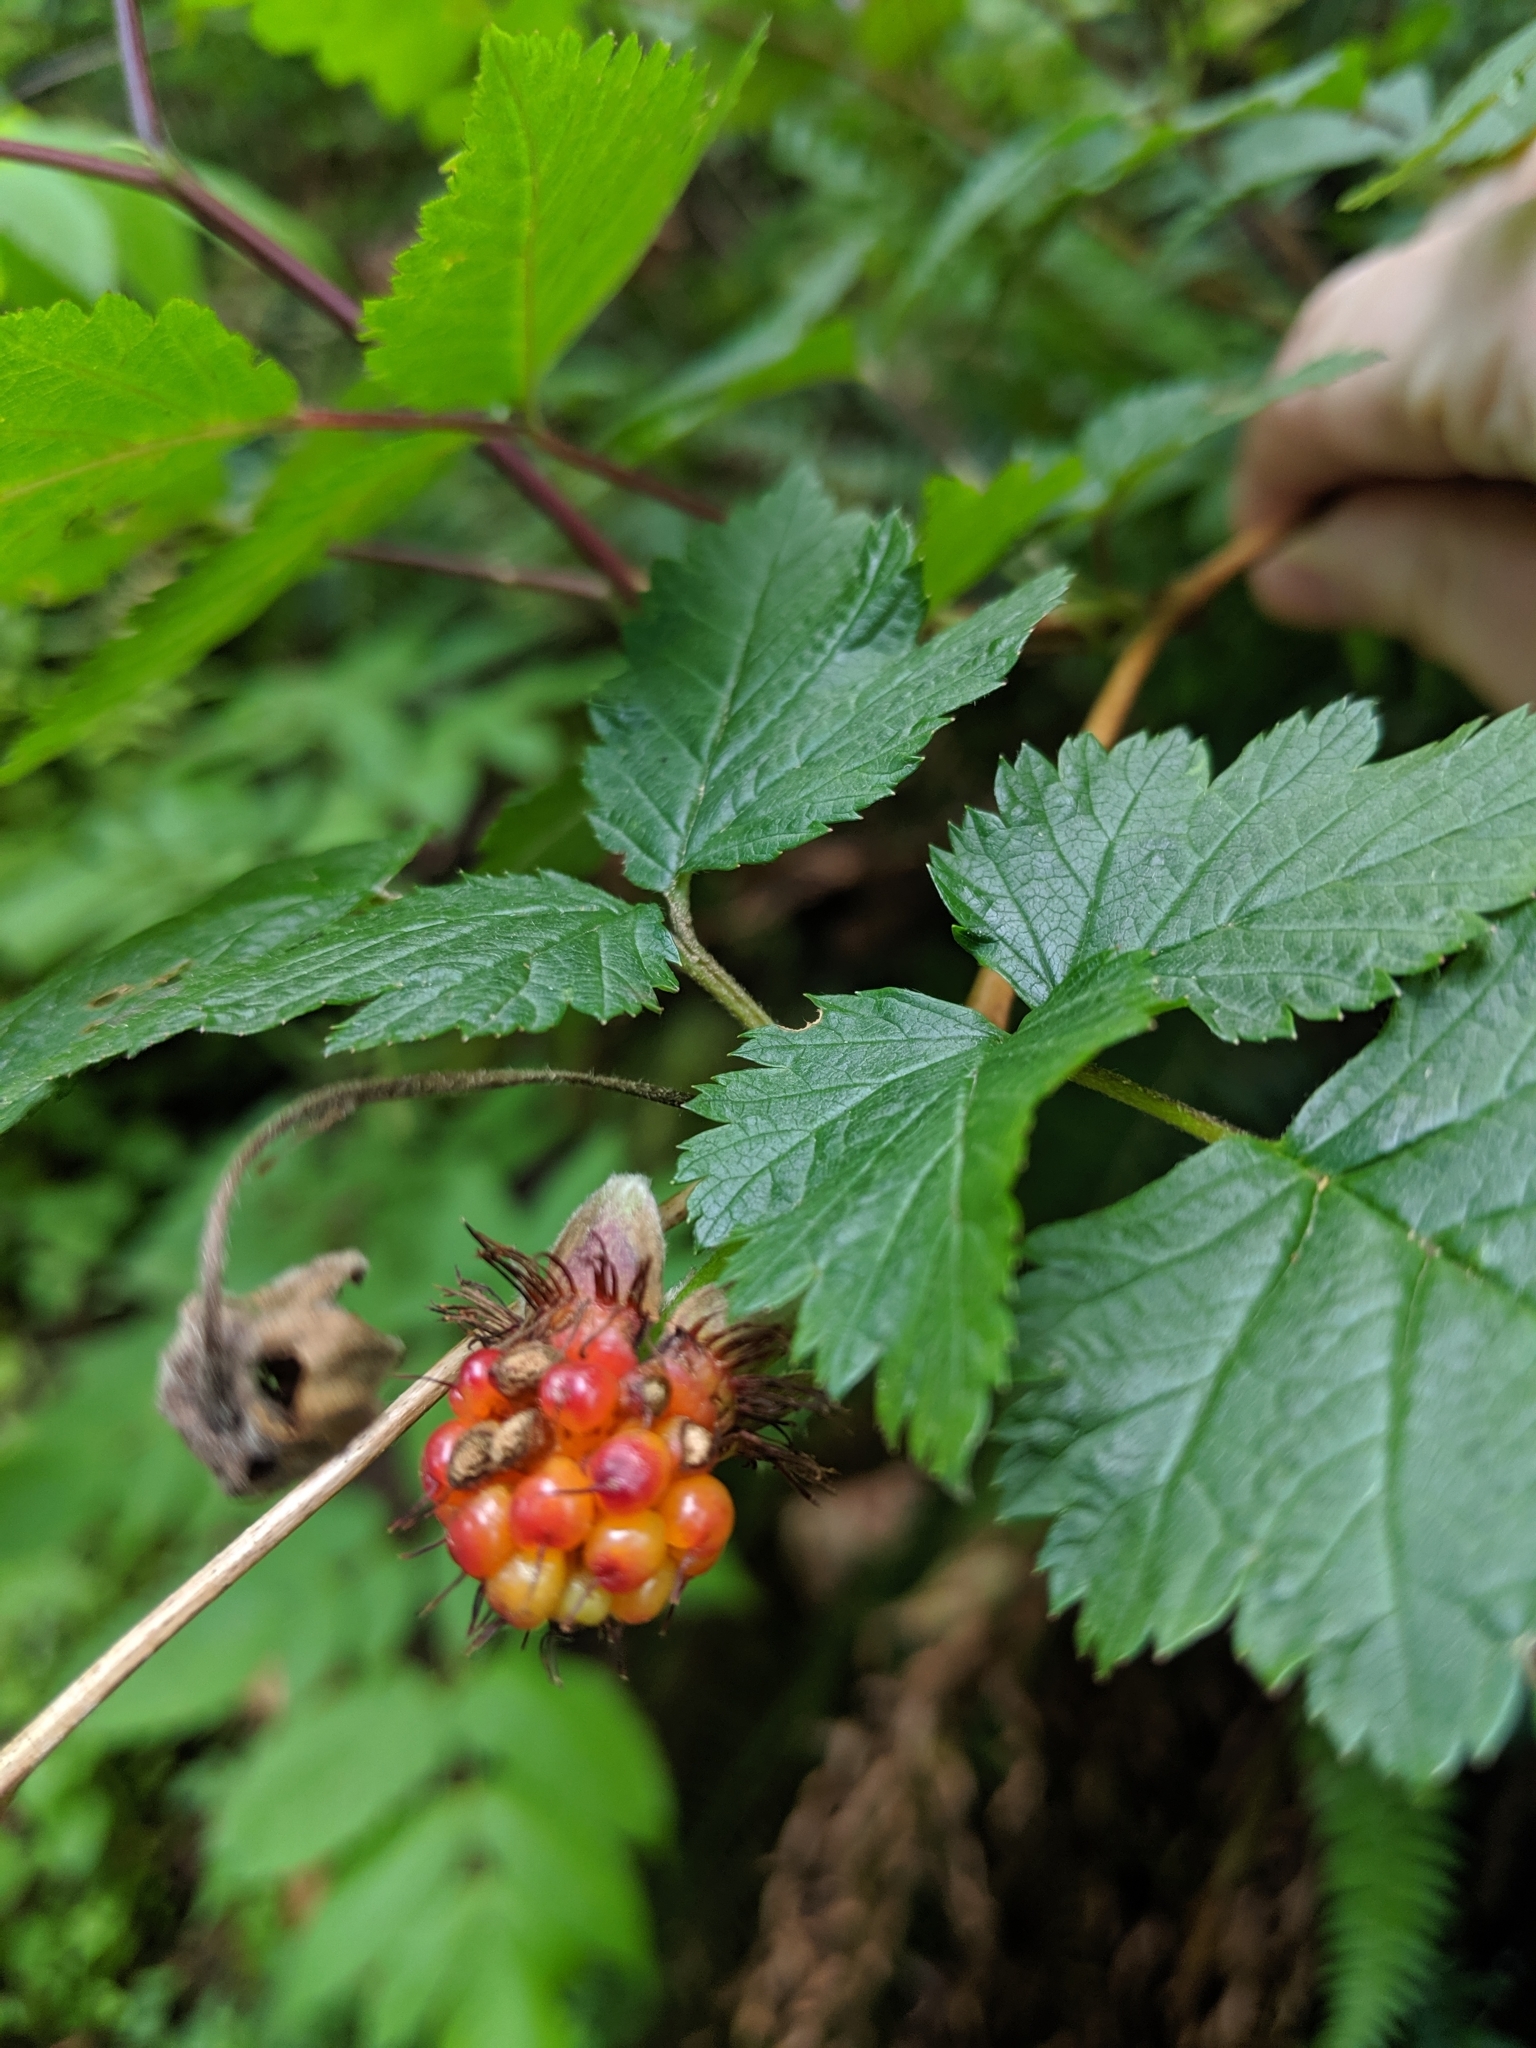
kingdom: Plantae
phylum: Tracheophyta
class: Magnoliopsida
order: Rosales
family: Rosaceae
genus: Rubus
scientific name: Rubus spectabilis
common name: Salmonberry
